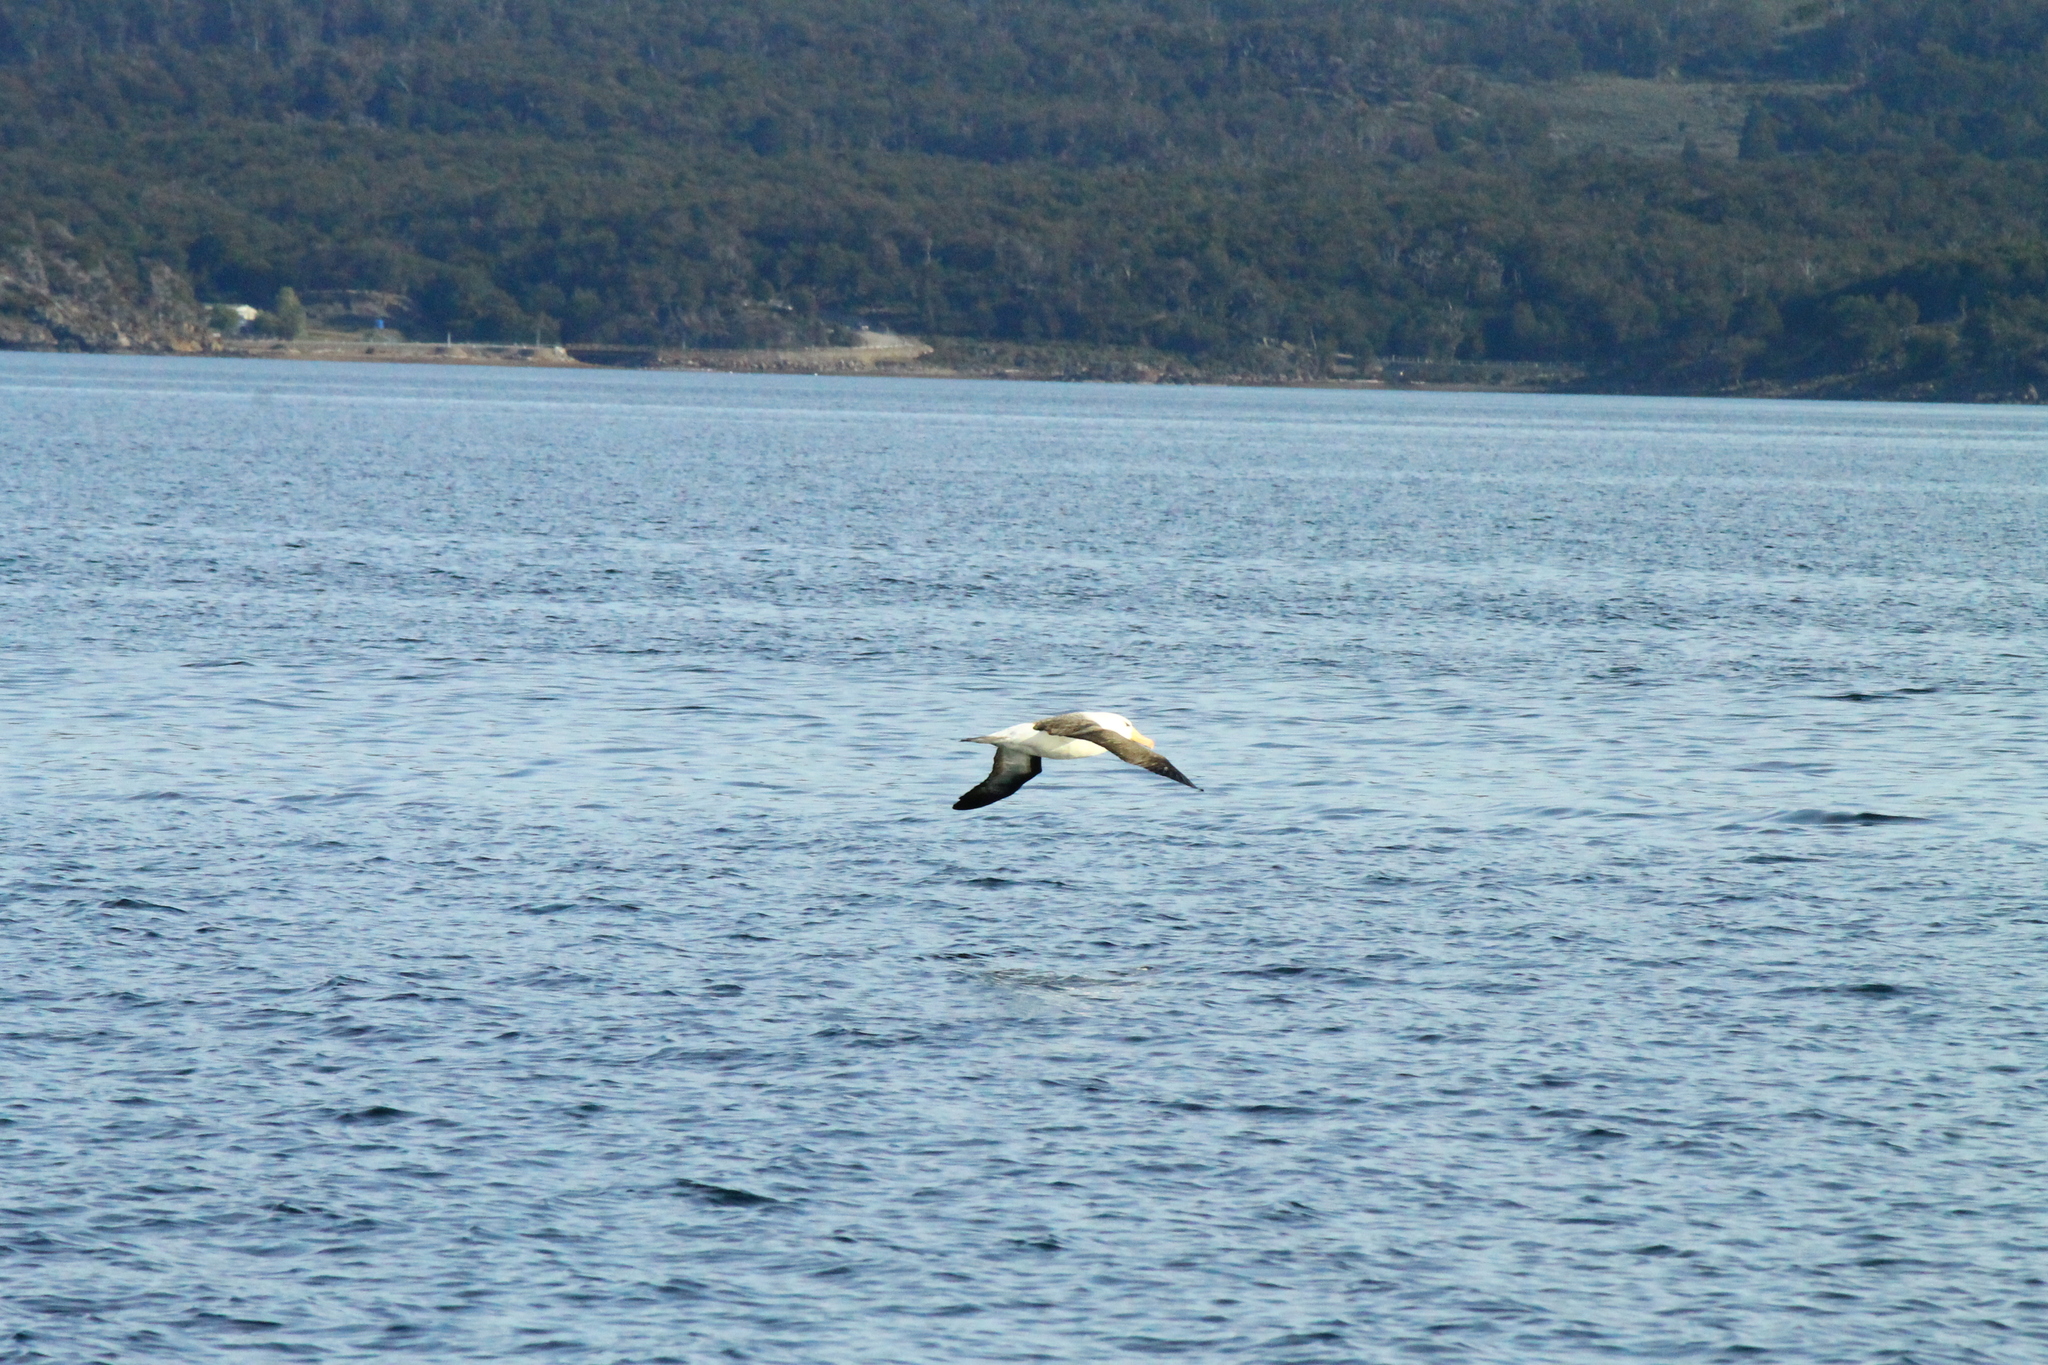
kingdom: Animalia
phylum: Chordata
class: Aves
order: Procellariiformes
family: Diomedeidae
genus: Thalassarche
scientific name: Thalassarche melanophris
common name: Black-browed albatross
